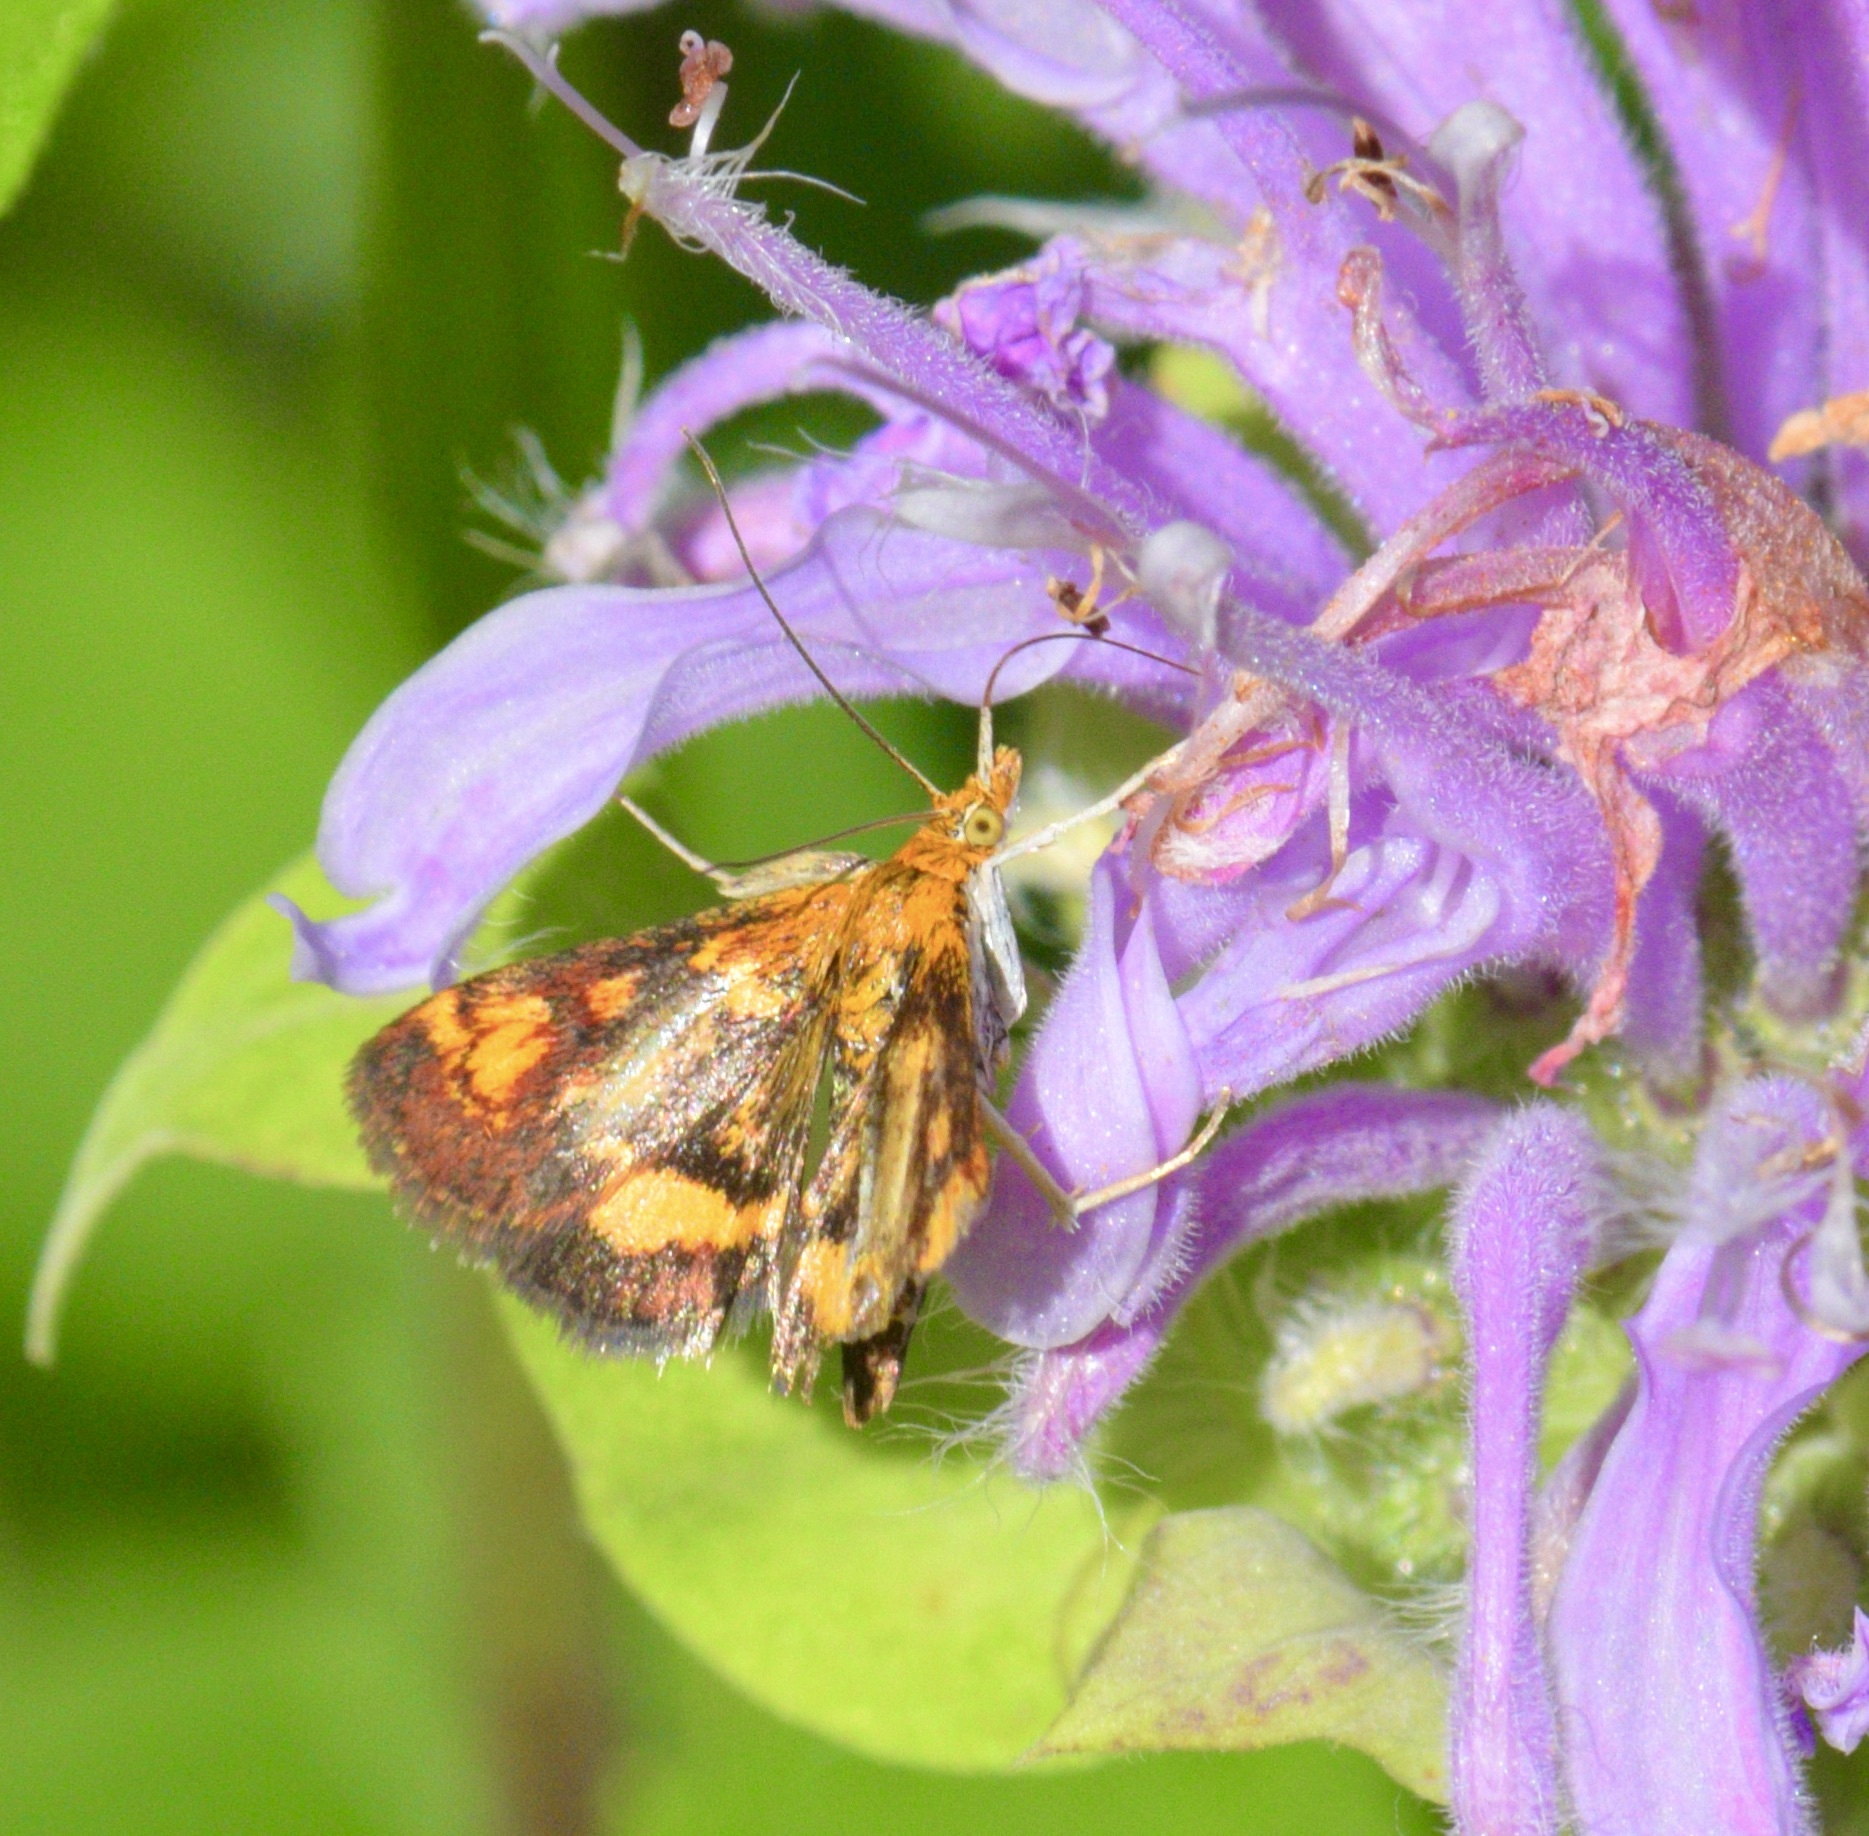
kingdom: Animalia
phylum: Arthropoda
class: Insecta
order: Lepidoptera
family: Crambidae
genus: Pyrausta
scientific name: Pyrausta orphisalis
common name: Orange mint moth
